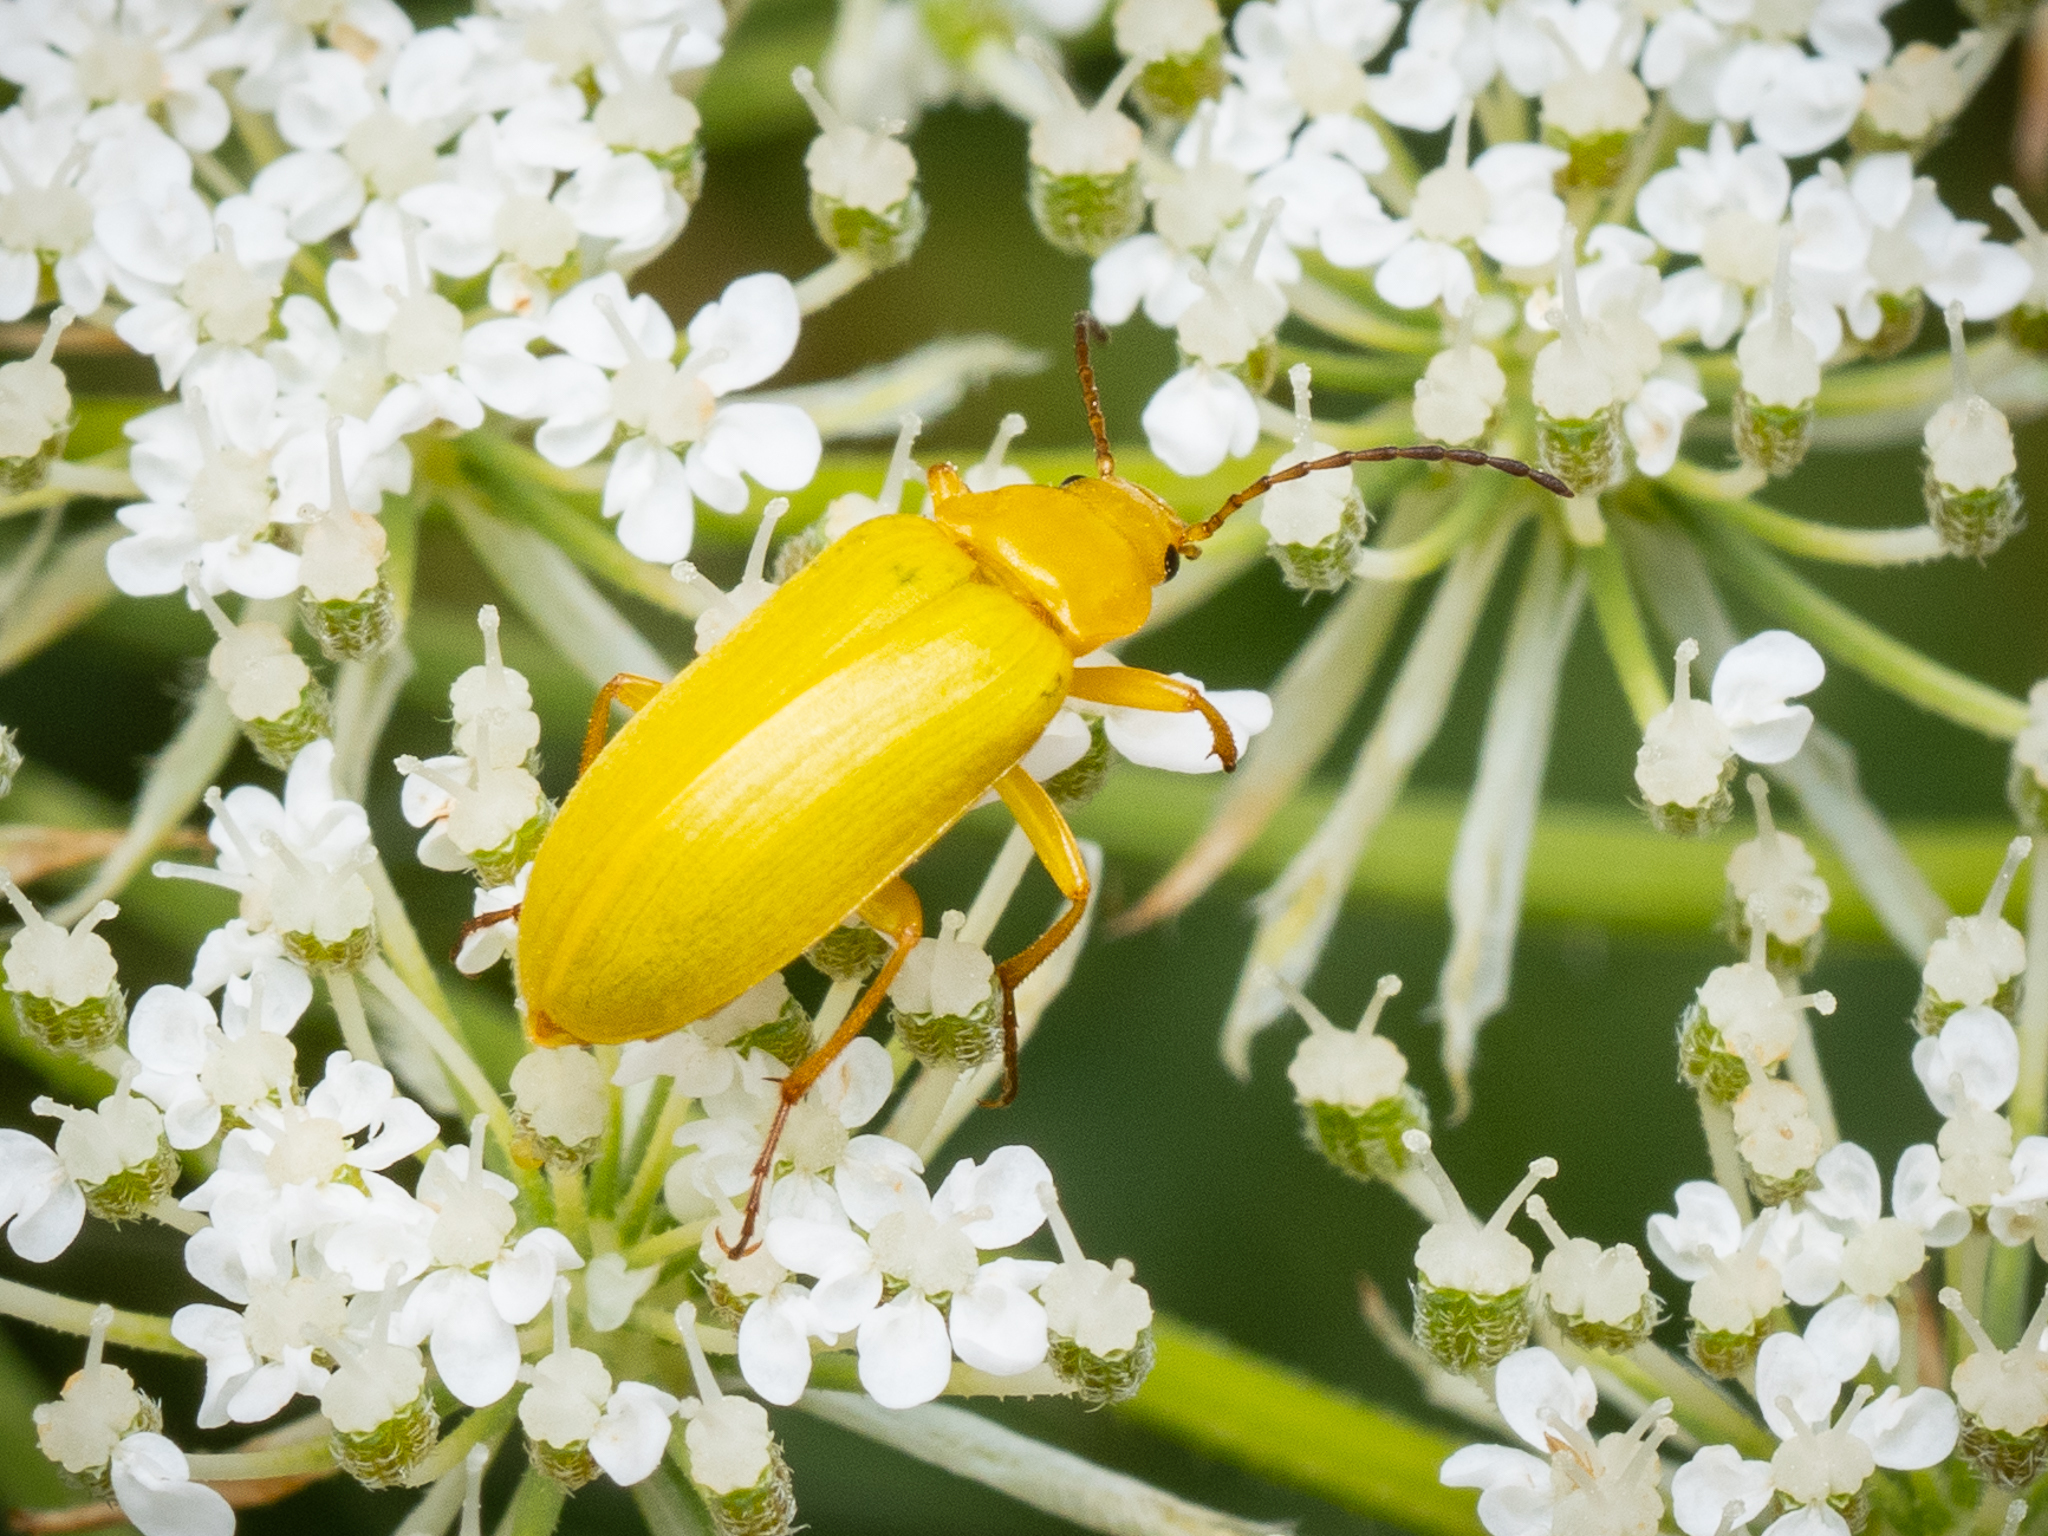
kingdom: Animalia
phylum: Arthropoda
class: Insecta
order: Coleoptera
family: Tenebrionidae
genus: Cteniopus
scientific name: Cteniopus sulphureus
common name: Sulphur beetle
